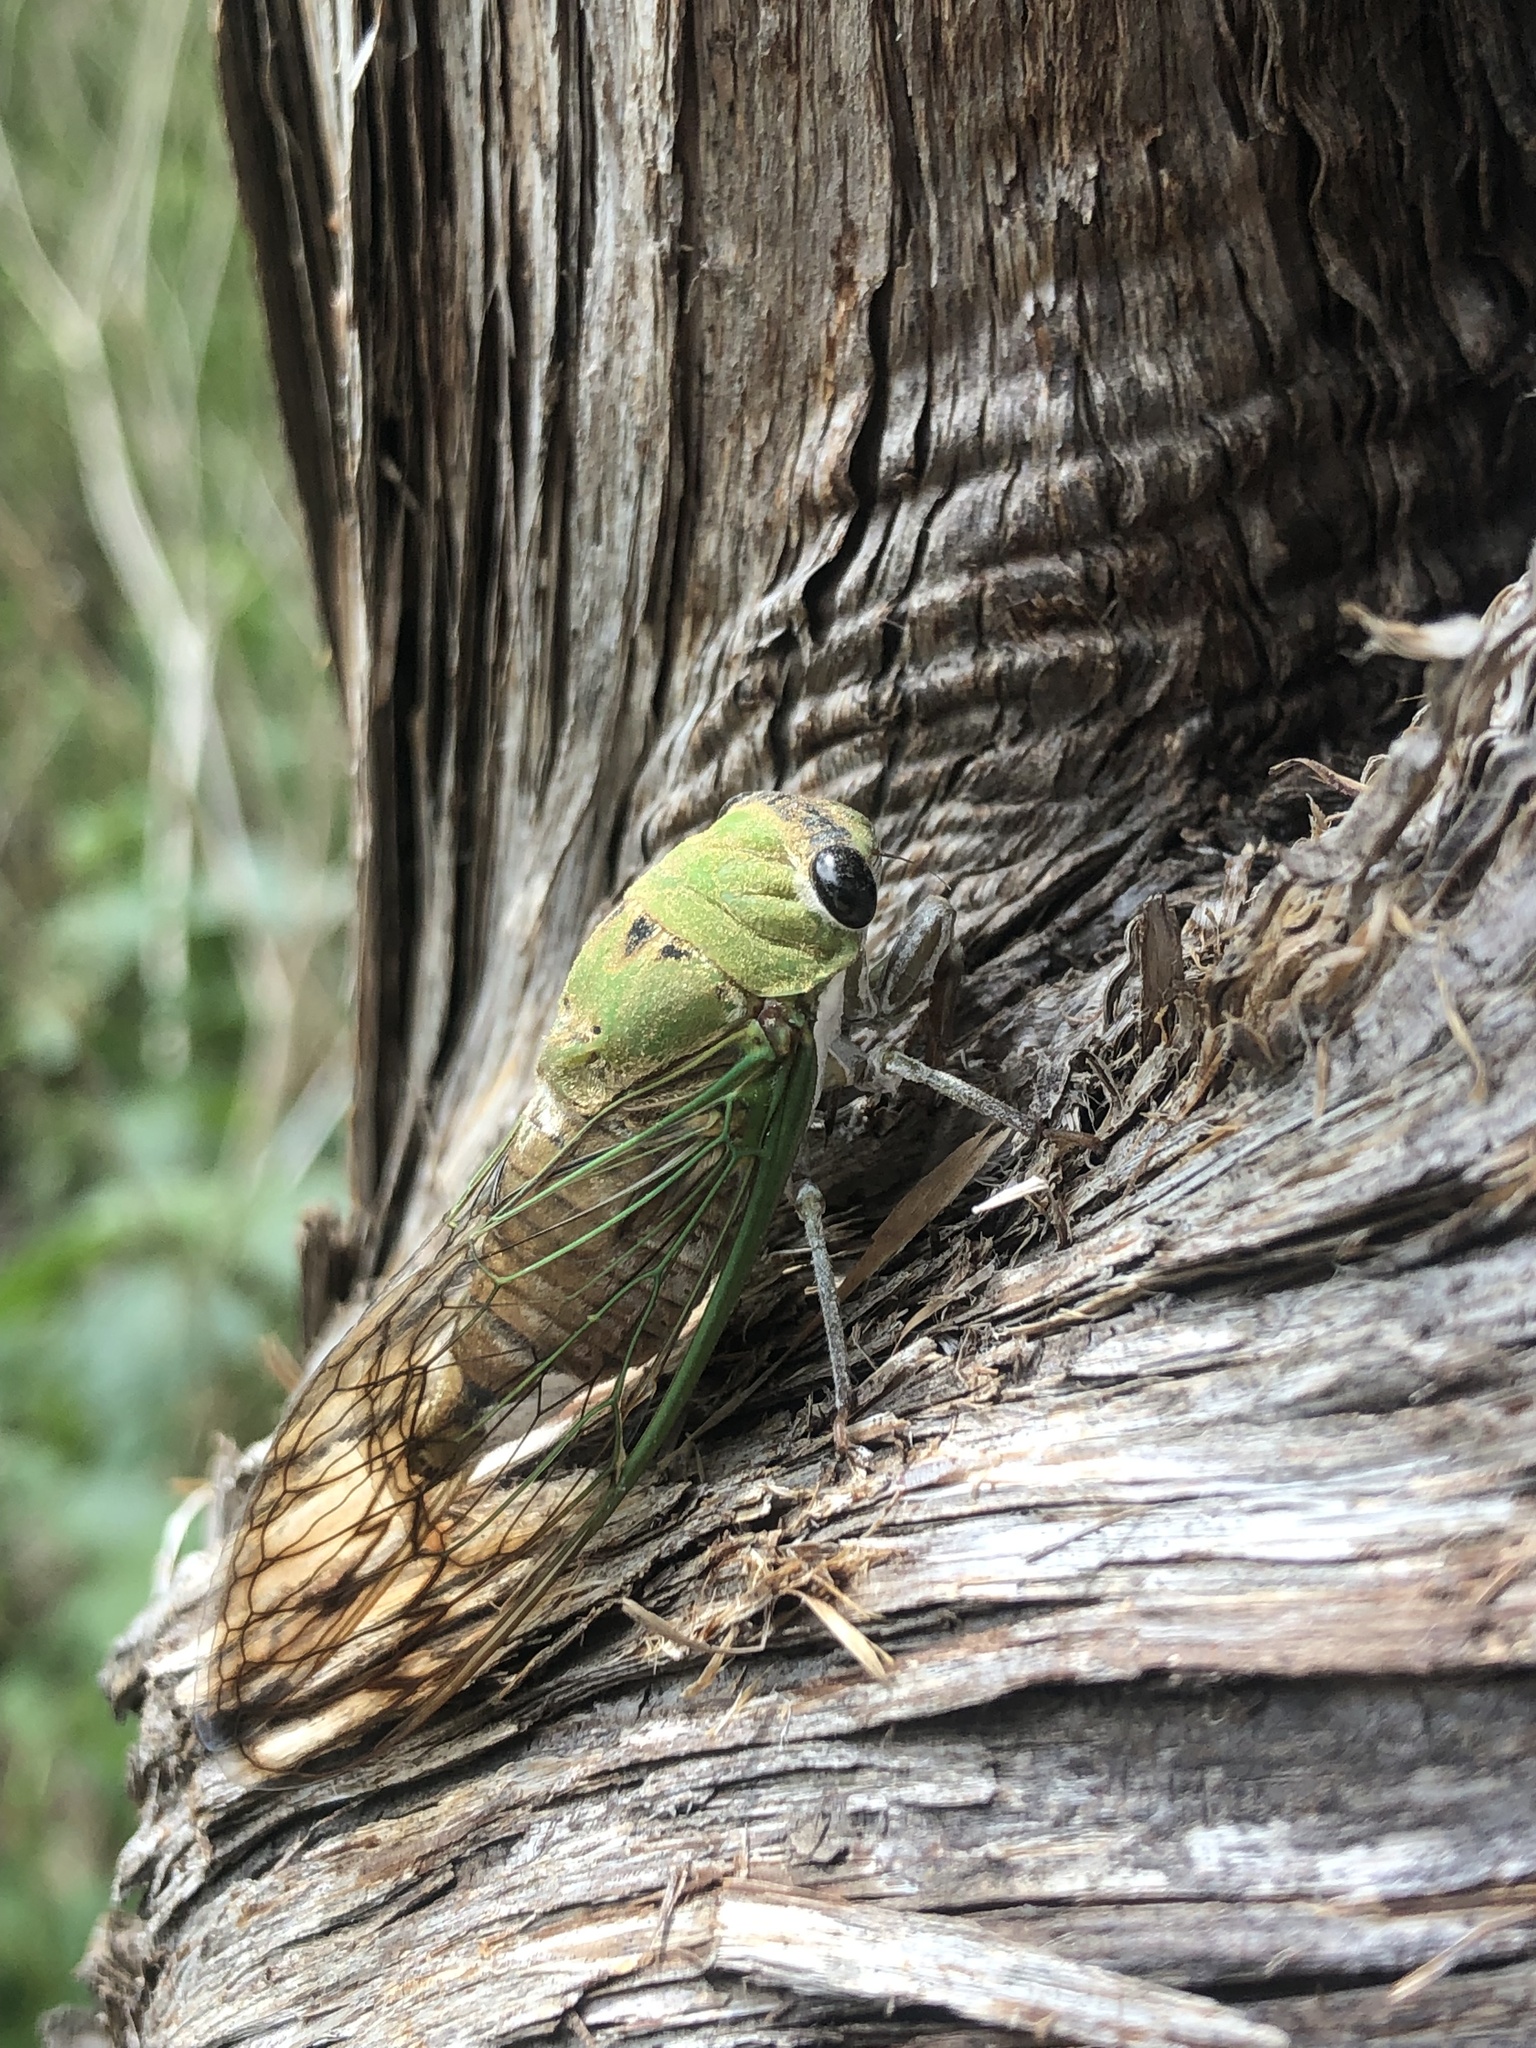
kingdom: Animalia
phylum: Arthropoda
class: Insecta
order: Hemiptera
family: Cicadidae
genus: Neotibicen
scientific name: Neotibicen superbus
